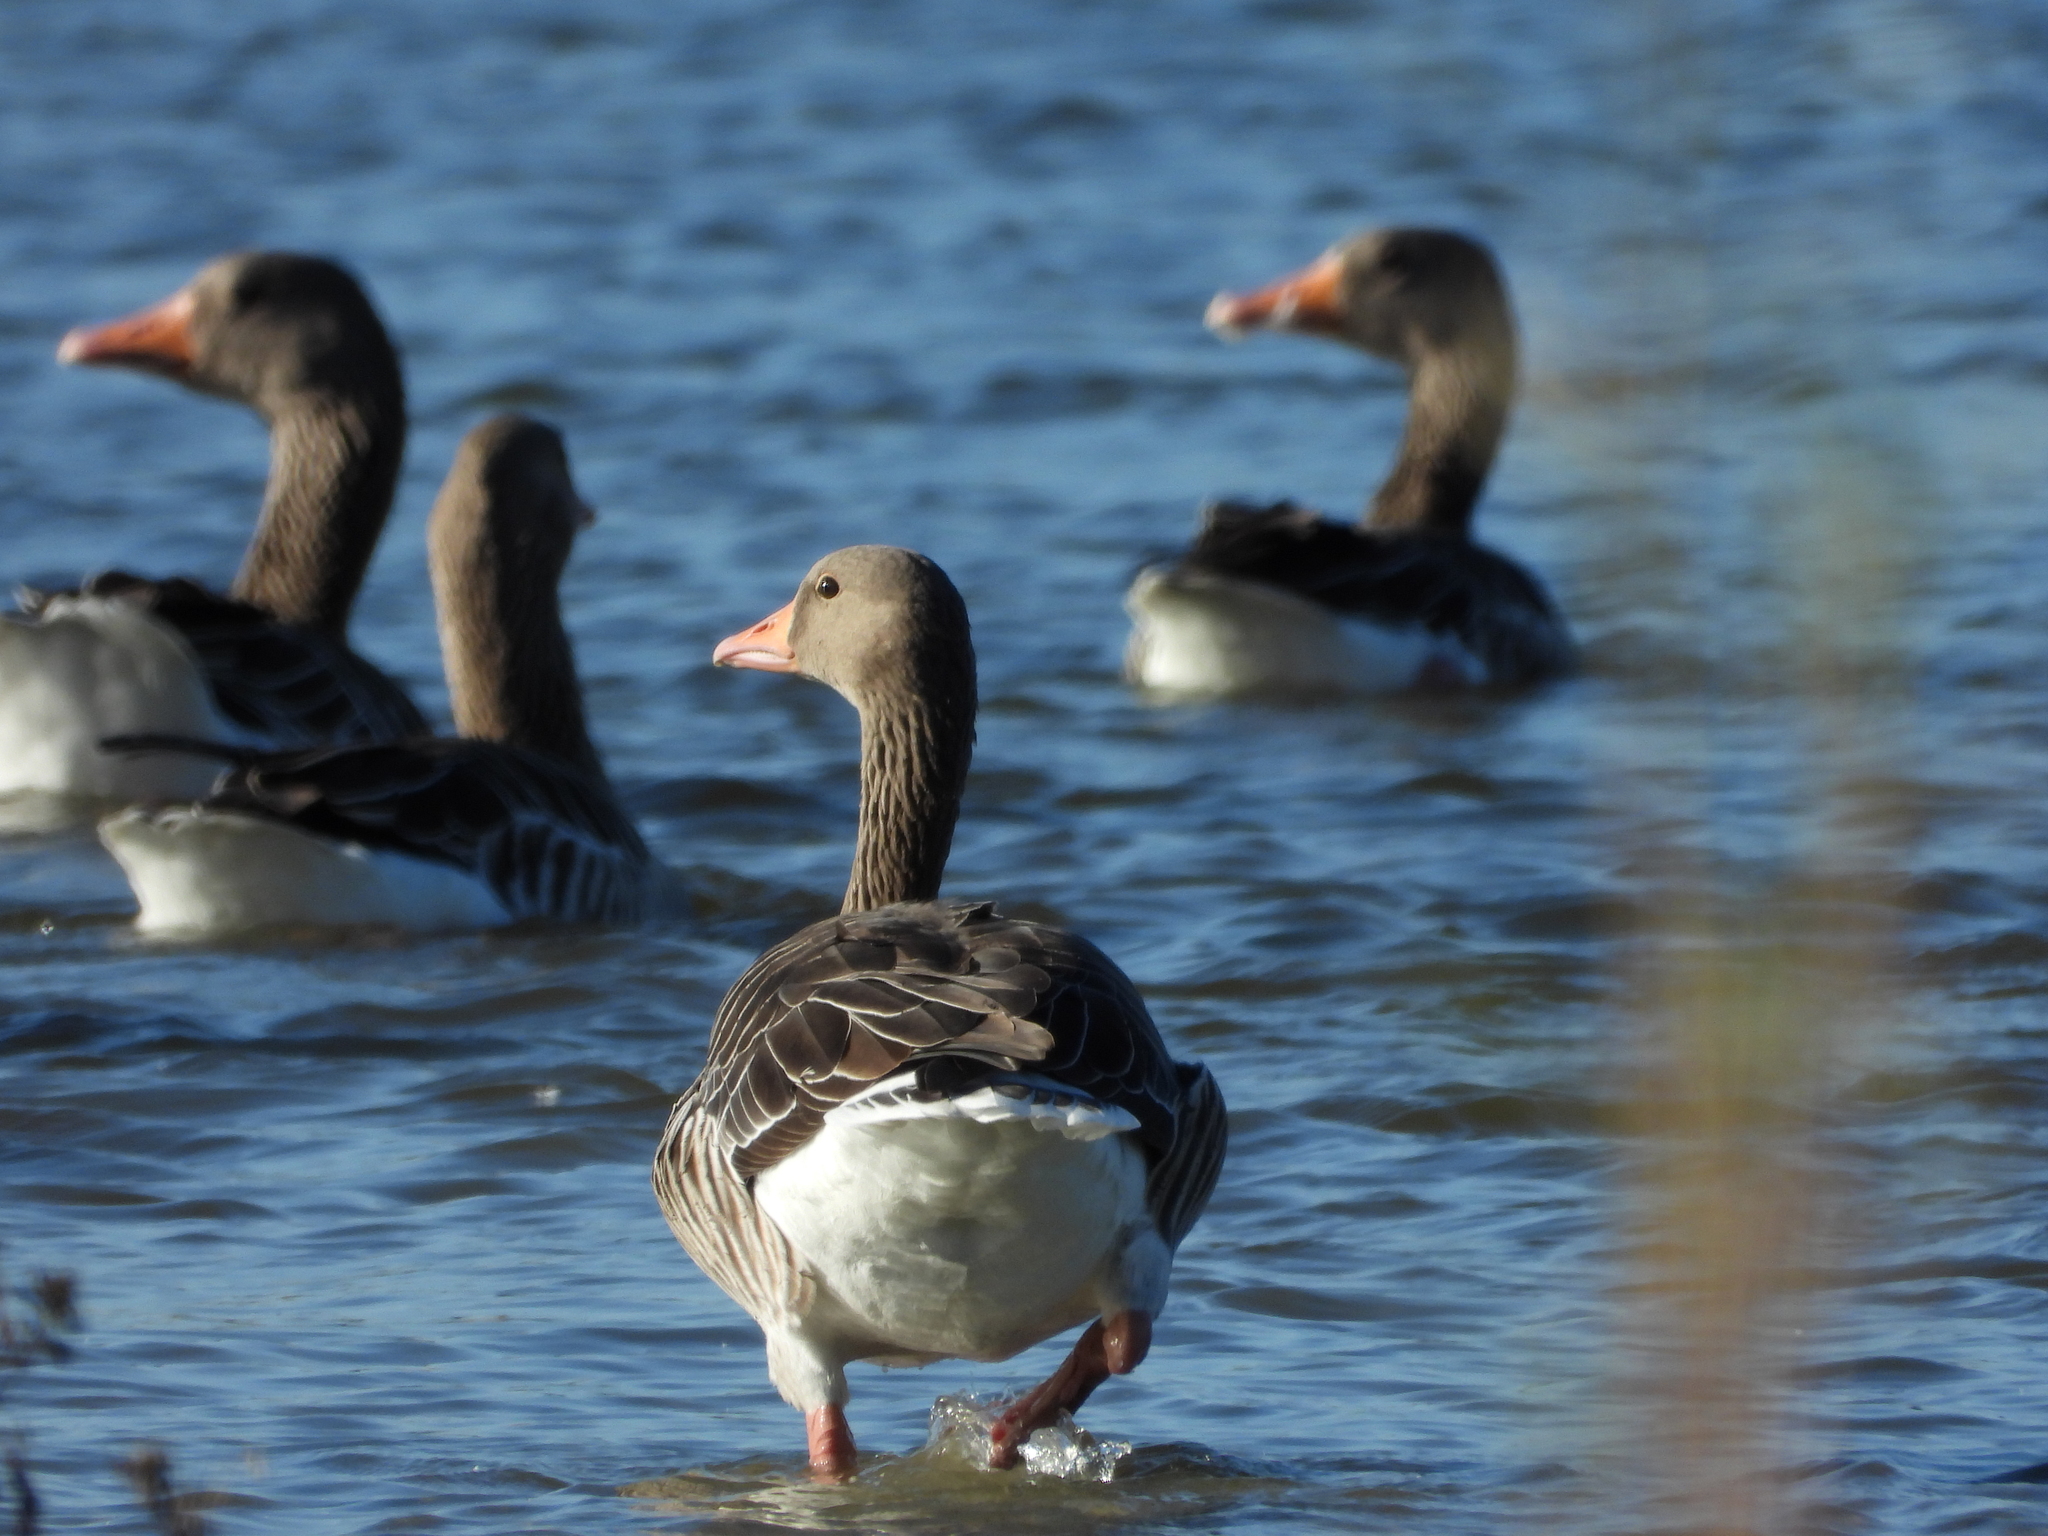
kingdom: Animalia
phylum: Chordata
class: Aves
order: Anseriformes
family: Anatidae
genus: Anser
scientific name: Anser anser
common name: Greylag goose
